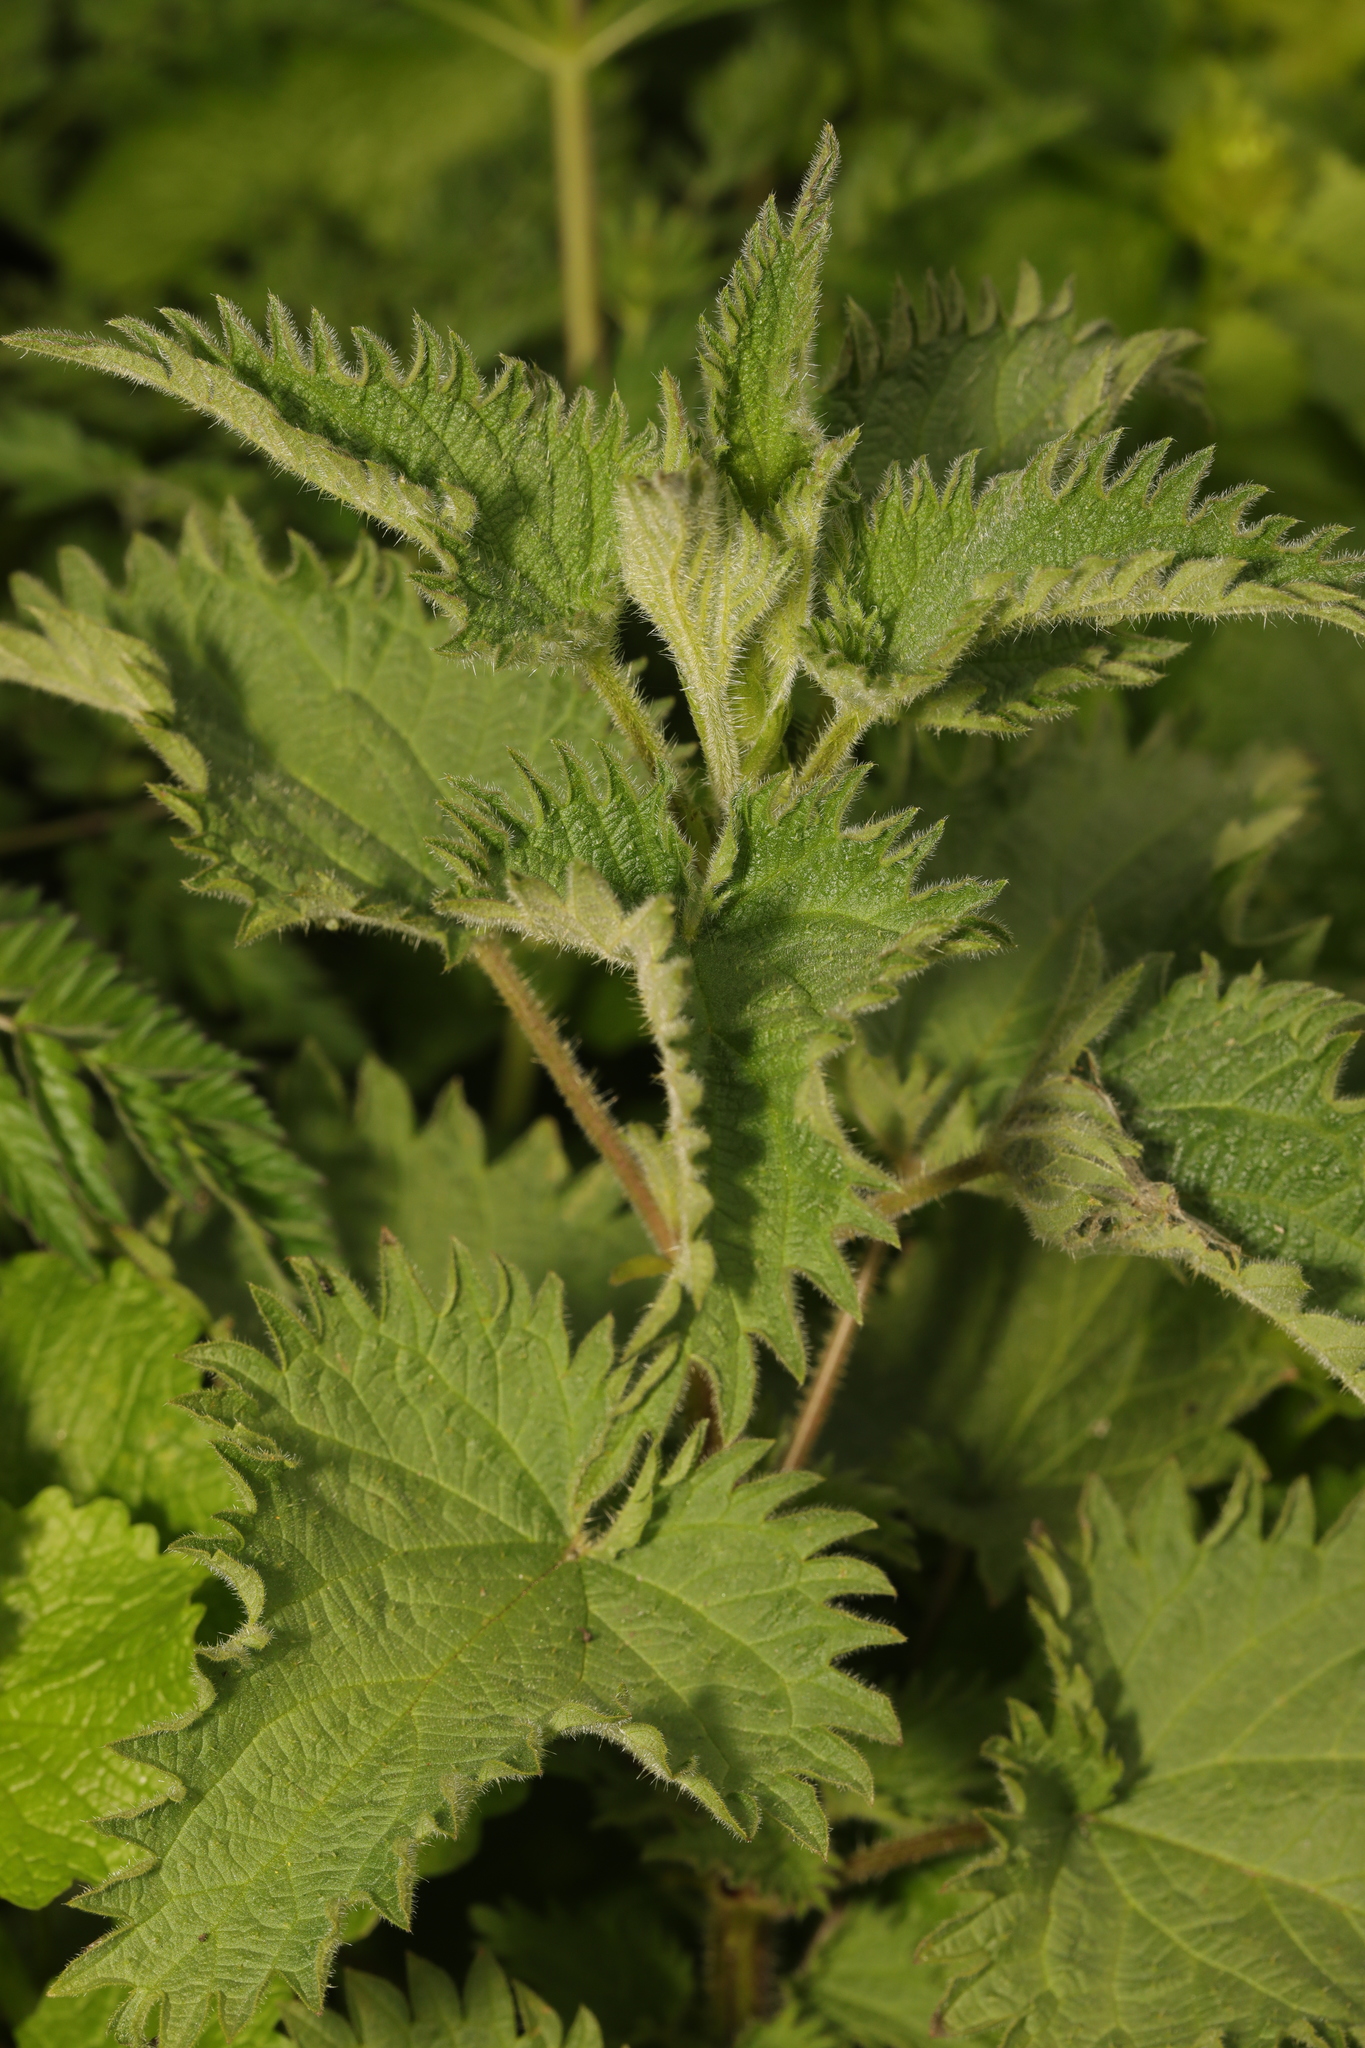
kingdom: Plantae
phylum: Tracheophyta
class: Magnoliopsida
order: Rosales
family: Urticaceae
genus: Urtica
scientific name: Urtica dioica
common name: Common nettle
